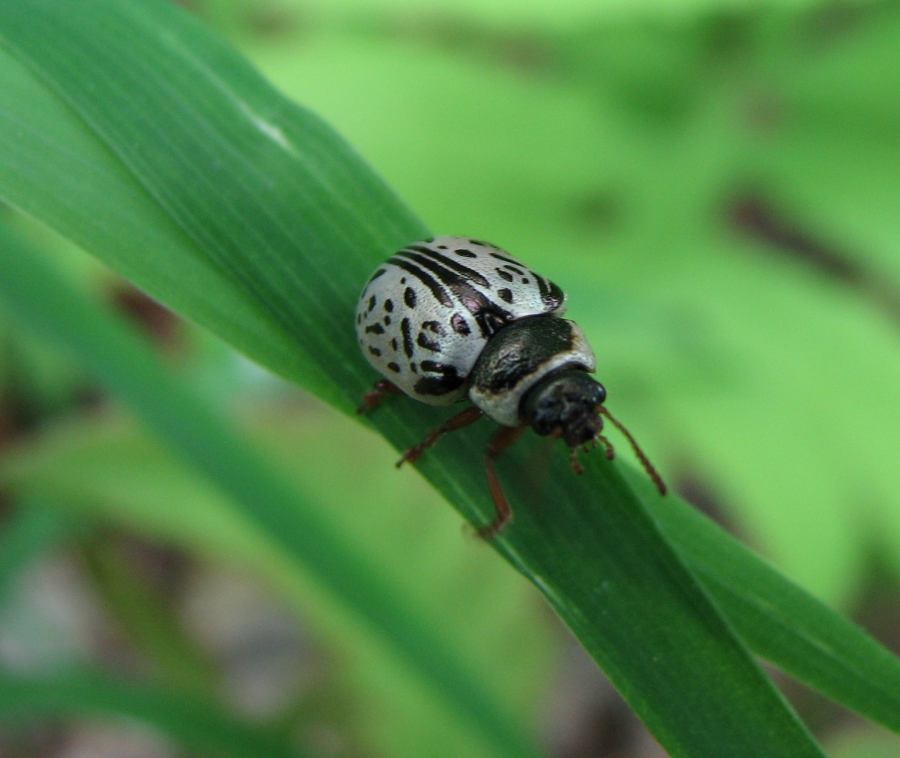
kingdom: Animalia
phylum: Arthropoda
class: Insecta
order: Coleoptera
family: Chrysomelidae
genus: Calligrapha
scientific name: Calligrapha multipunctata
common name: Common willow calligrapher beetle
